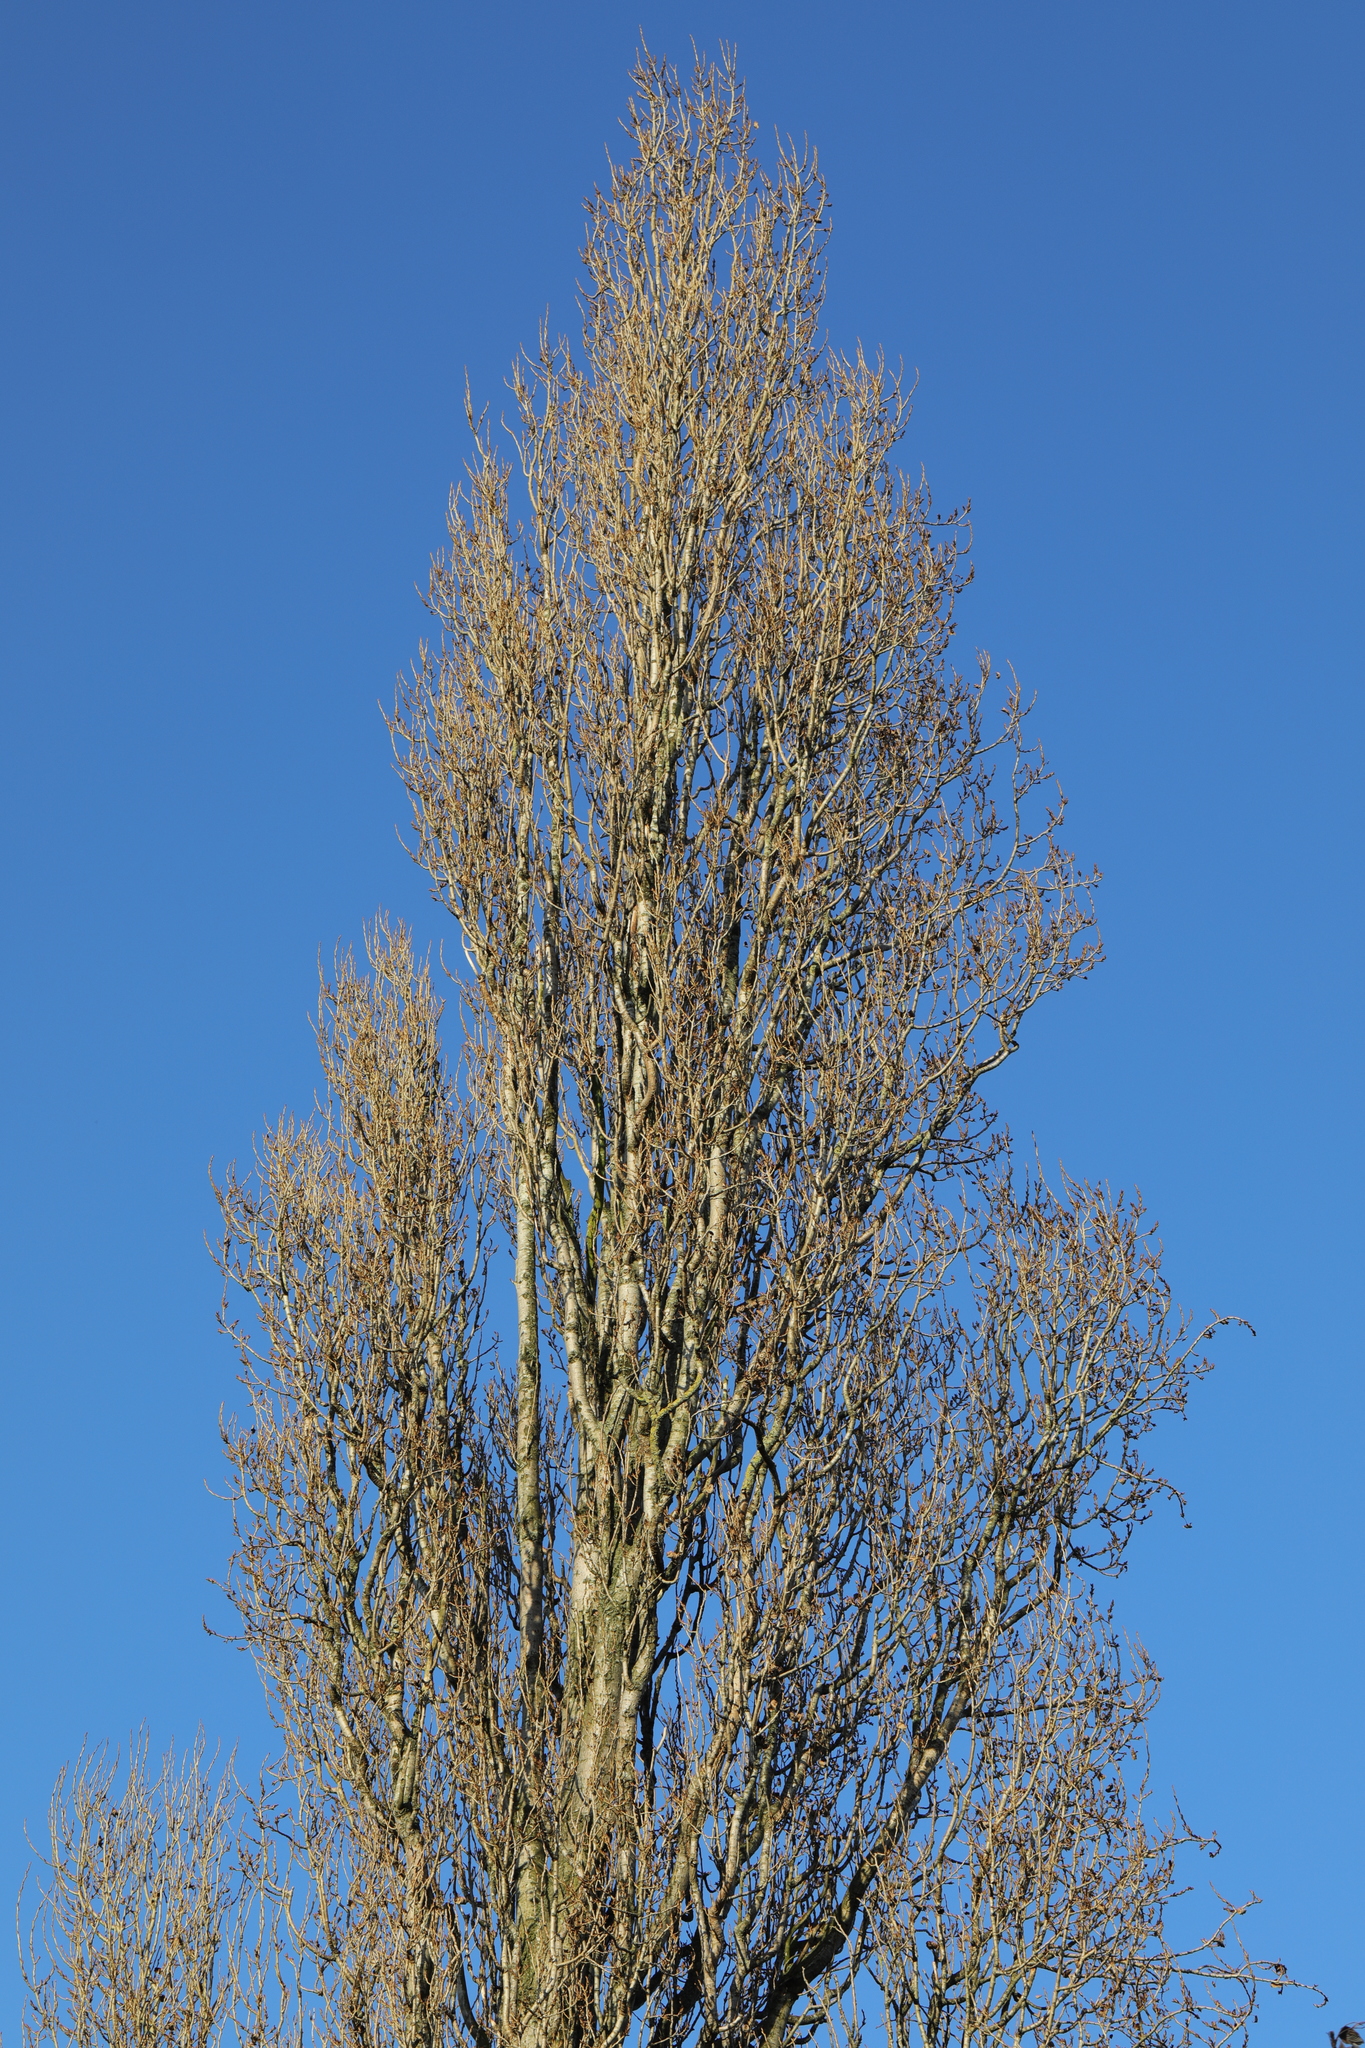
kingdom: Plantae
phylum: Tracheophyta
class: Magnoliopsida
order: Malpighiales
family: Salicaceae
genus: Populus
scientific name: Populus nigra
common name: Black poplar
